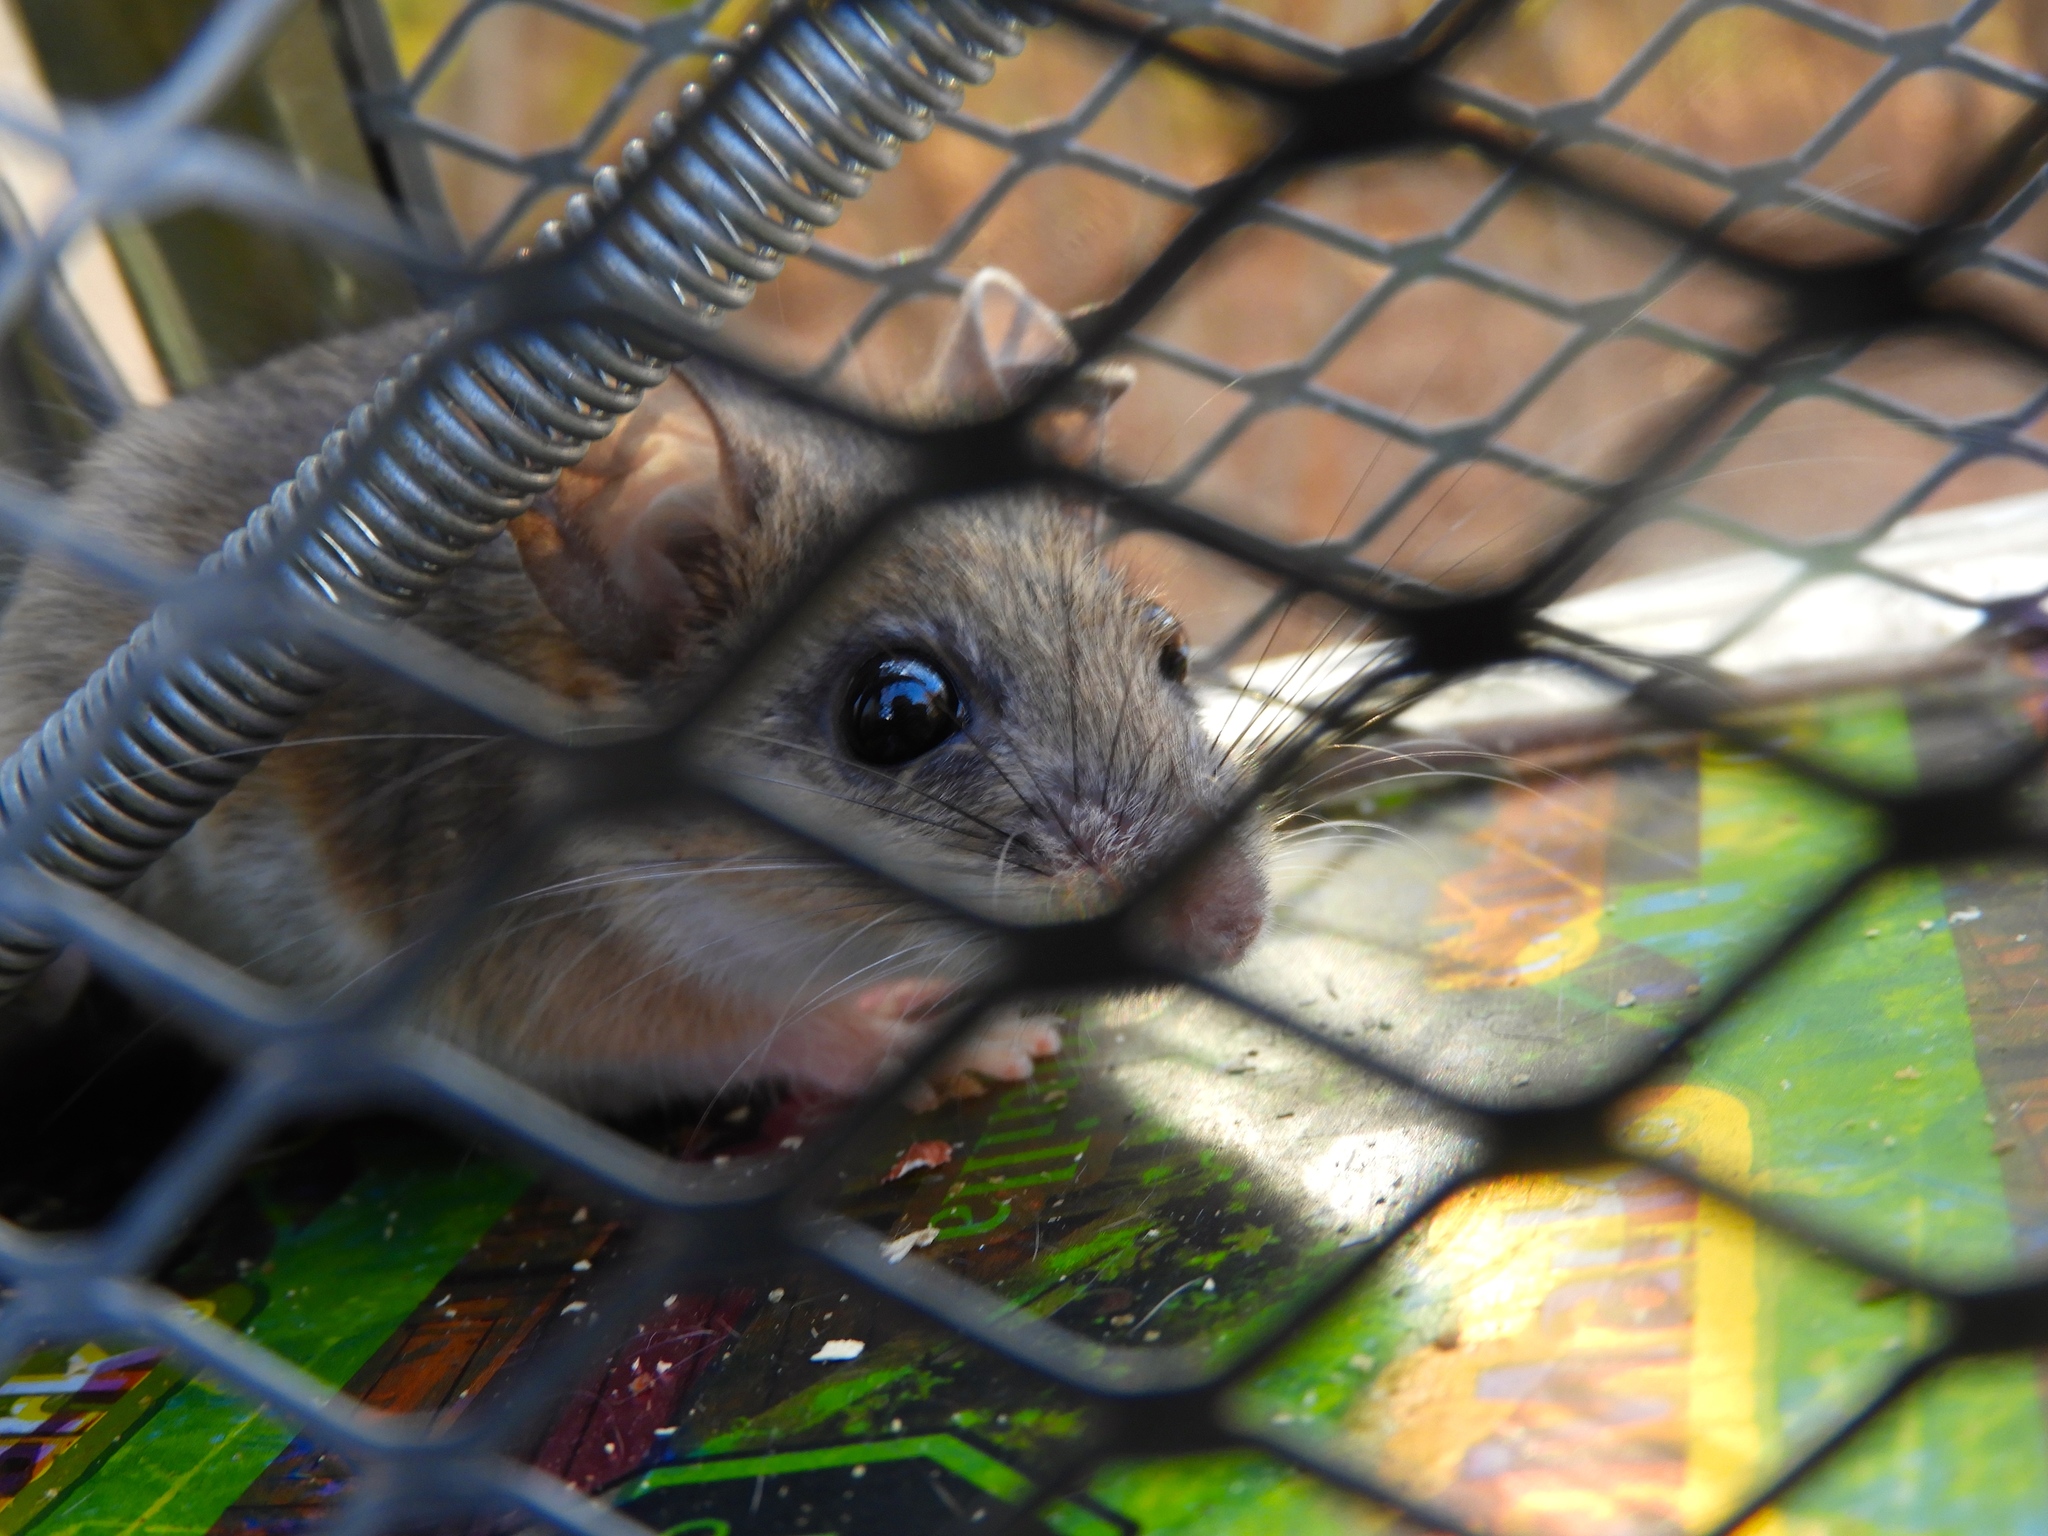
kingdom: Animalia
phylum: Chordata
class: Mammalia
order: Rodentia
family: Cricetidae
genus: Peromyscus
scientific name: Peromyscus
